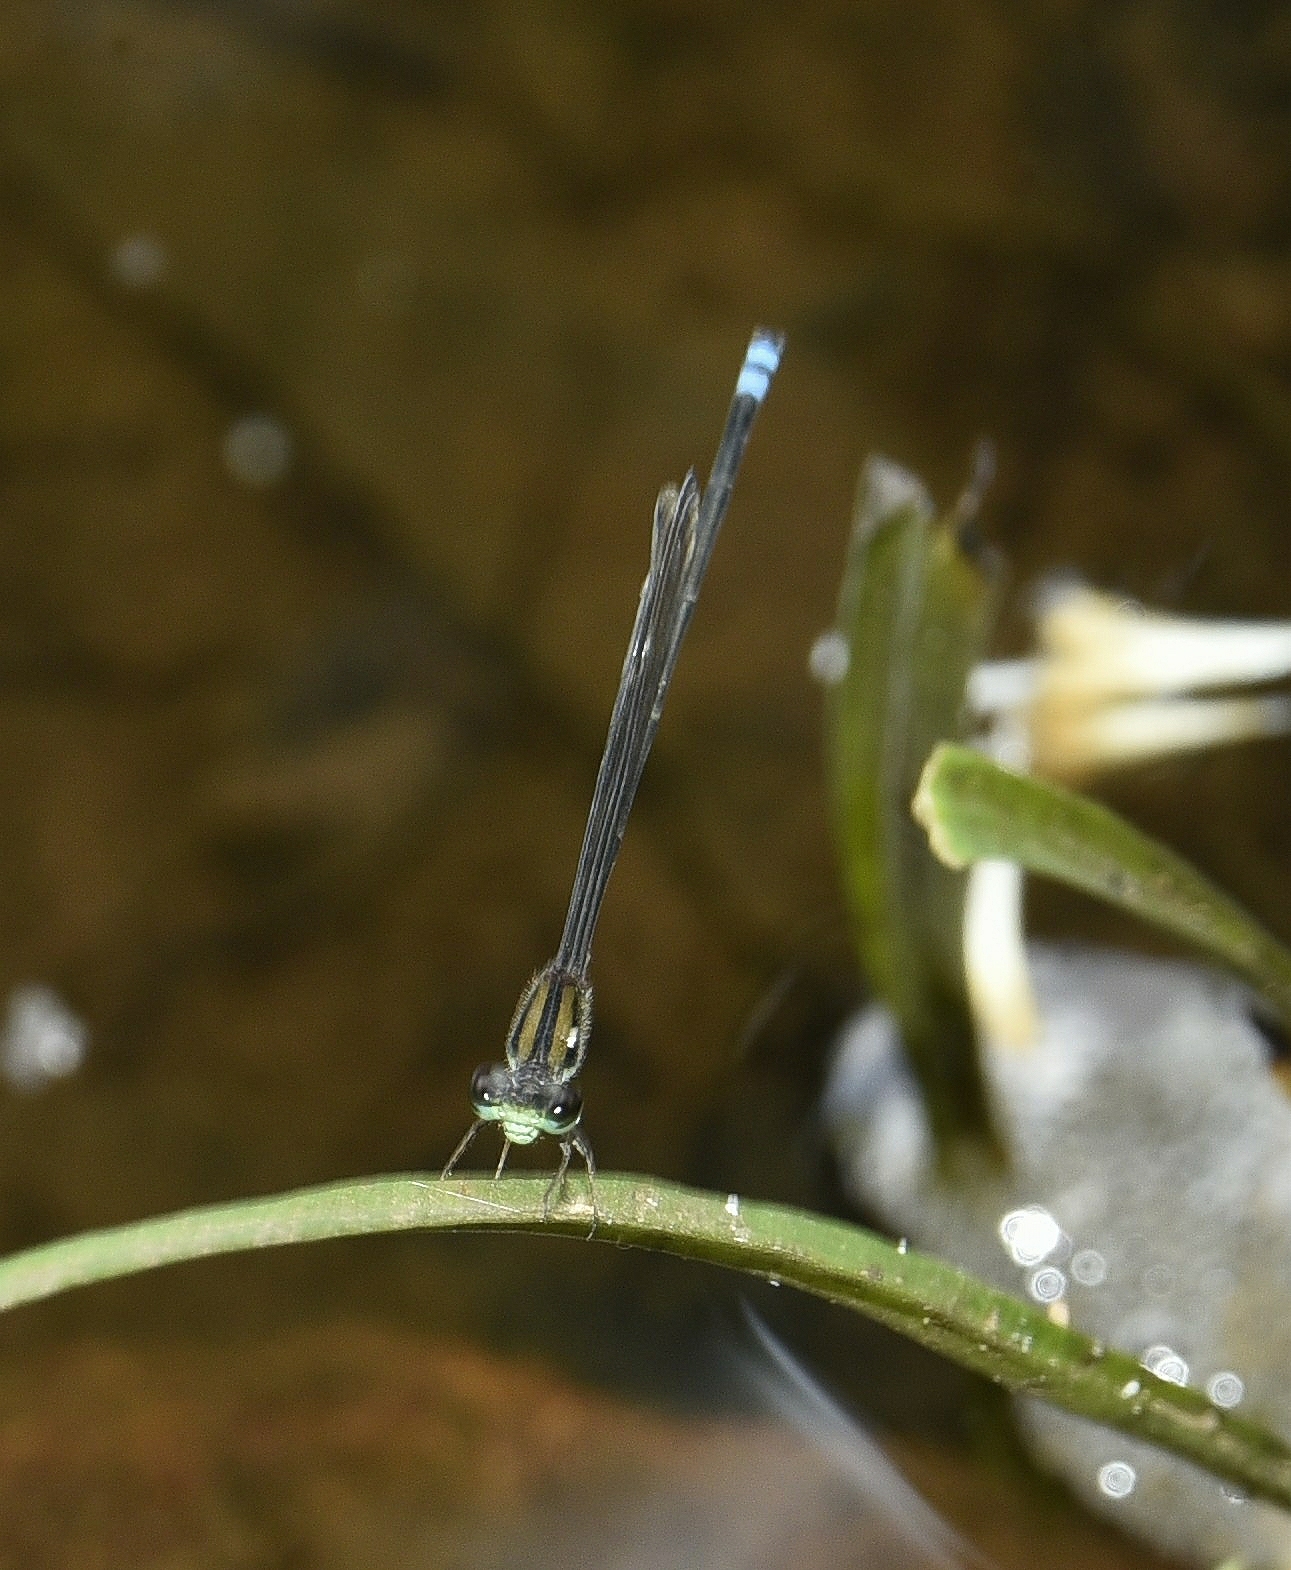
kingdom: Animalia
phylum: Arthropoda
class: Insecta
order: Odonata
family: Coenagrionidae
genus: Pseudagrion
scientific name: Pseudagrion indicum
